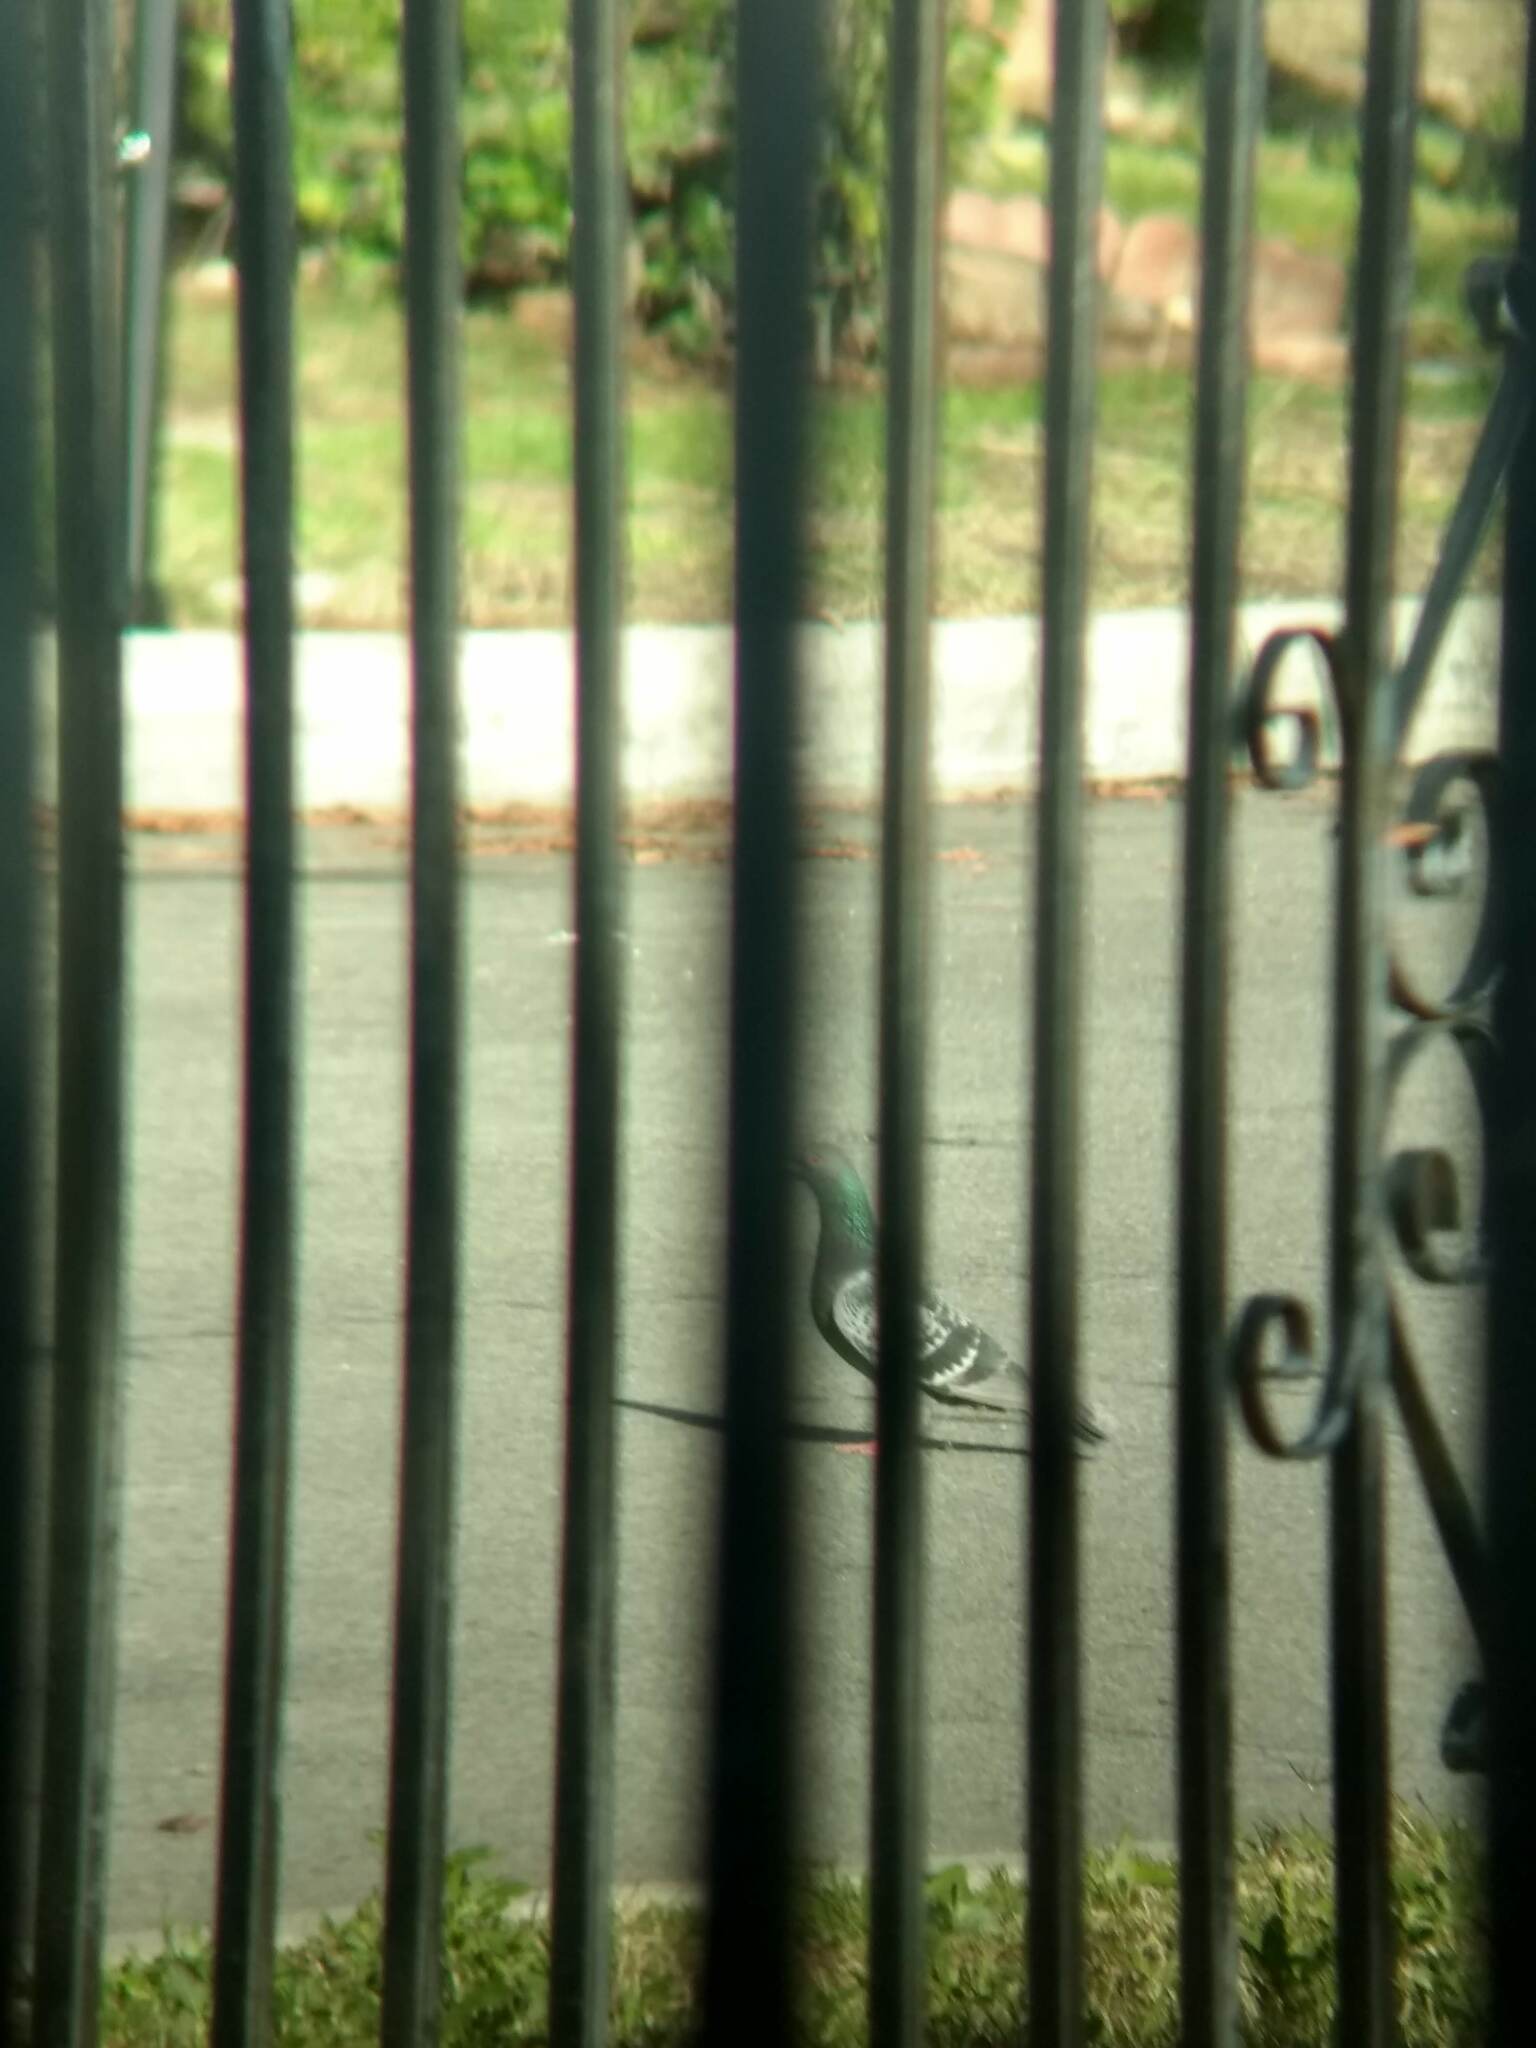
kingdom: Animalia
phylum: Chordata
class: Aves
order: Columbiformes
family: Columbidae
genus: Columba
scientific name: Columba livia
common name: Rock pigeon
